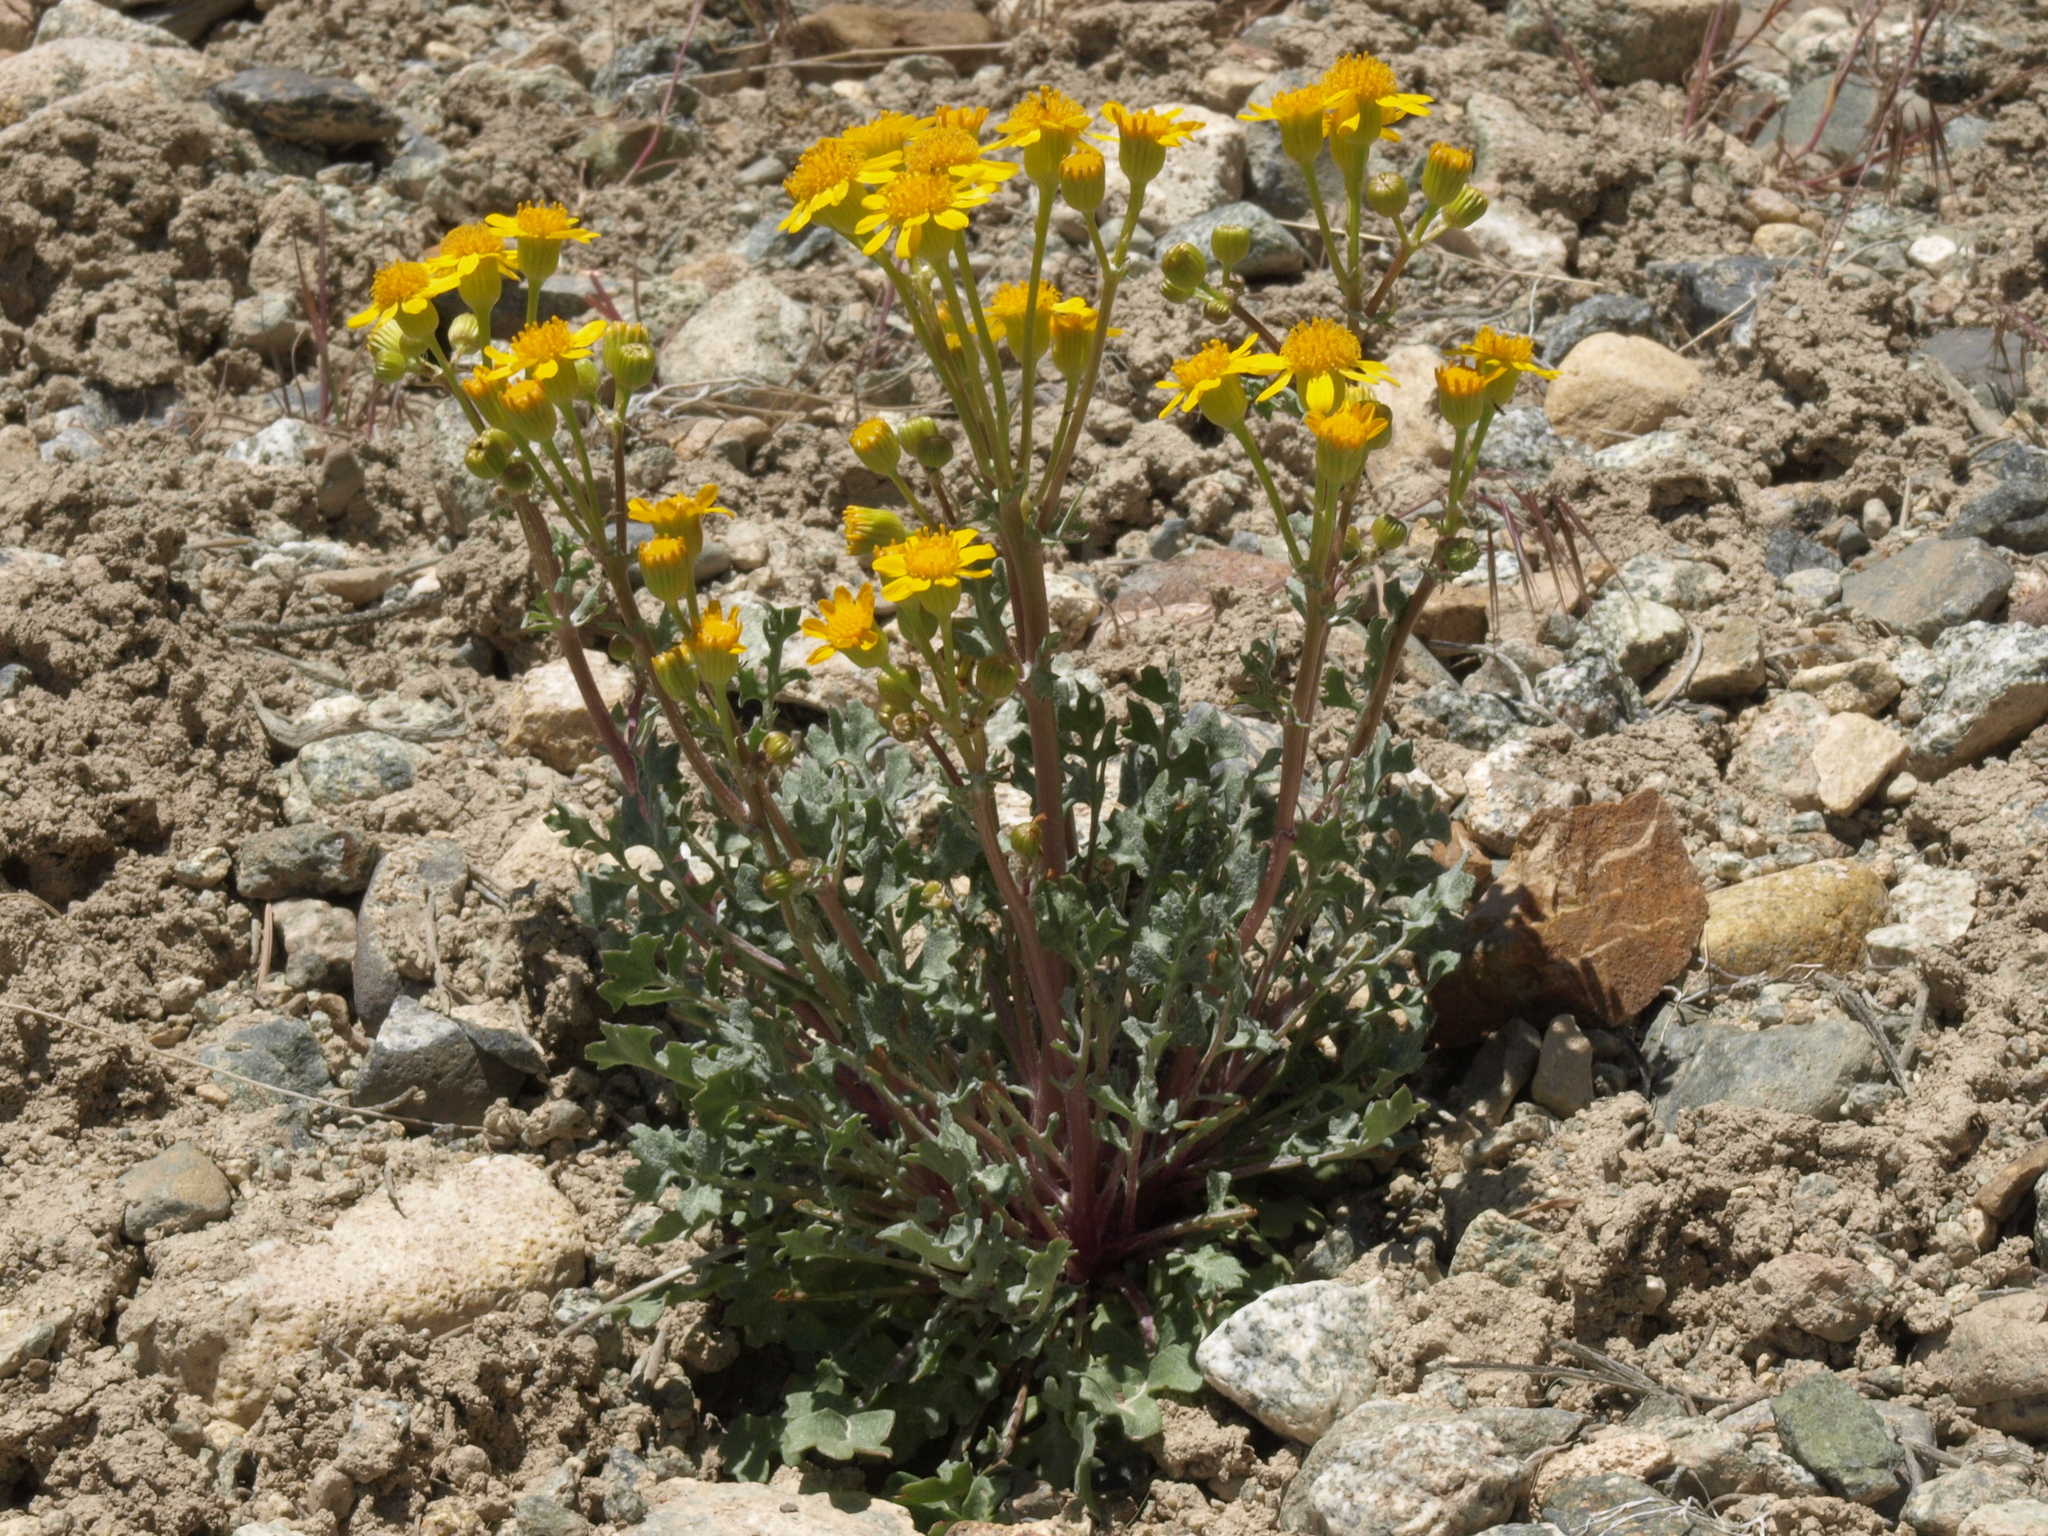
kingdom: Plantae
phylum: Tracheophyta
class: Magnoliopsida
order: Asterales
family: Asteraceae
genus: Packera
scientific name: Packera multilobata
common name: Lobe-leaf groundsel
